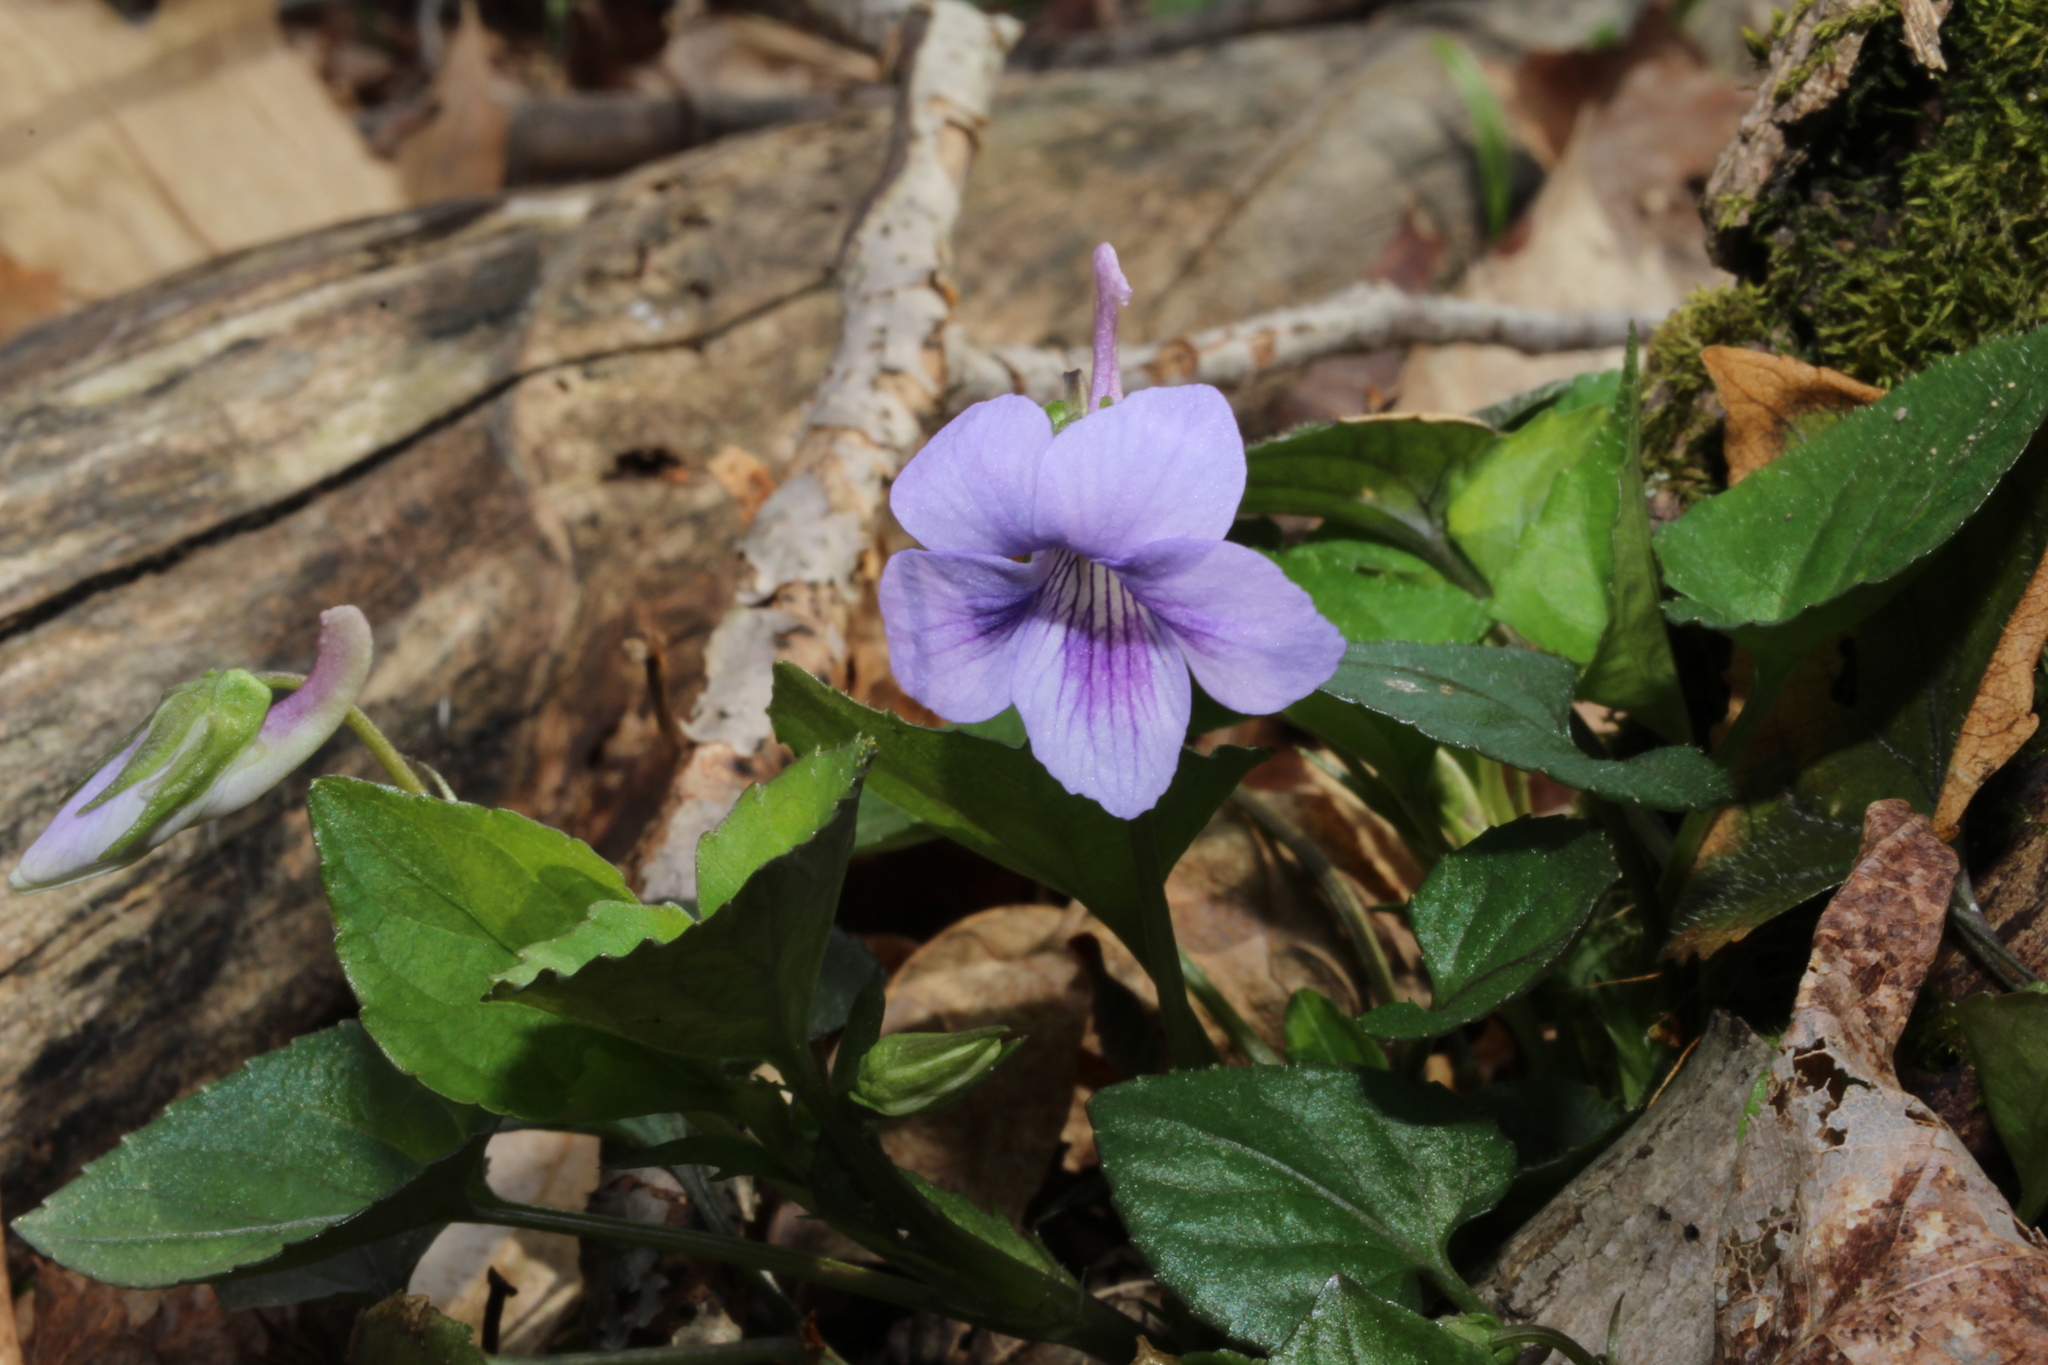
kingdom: Plantae
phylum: Tracheophyta
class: Magnoliopsida
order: Malpighiales
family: Violaceae
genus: Viola
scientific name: Viola rostrata
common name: Long-spur violet
